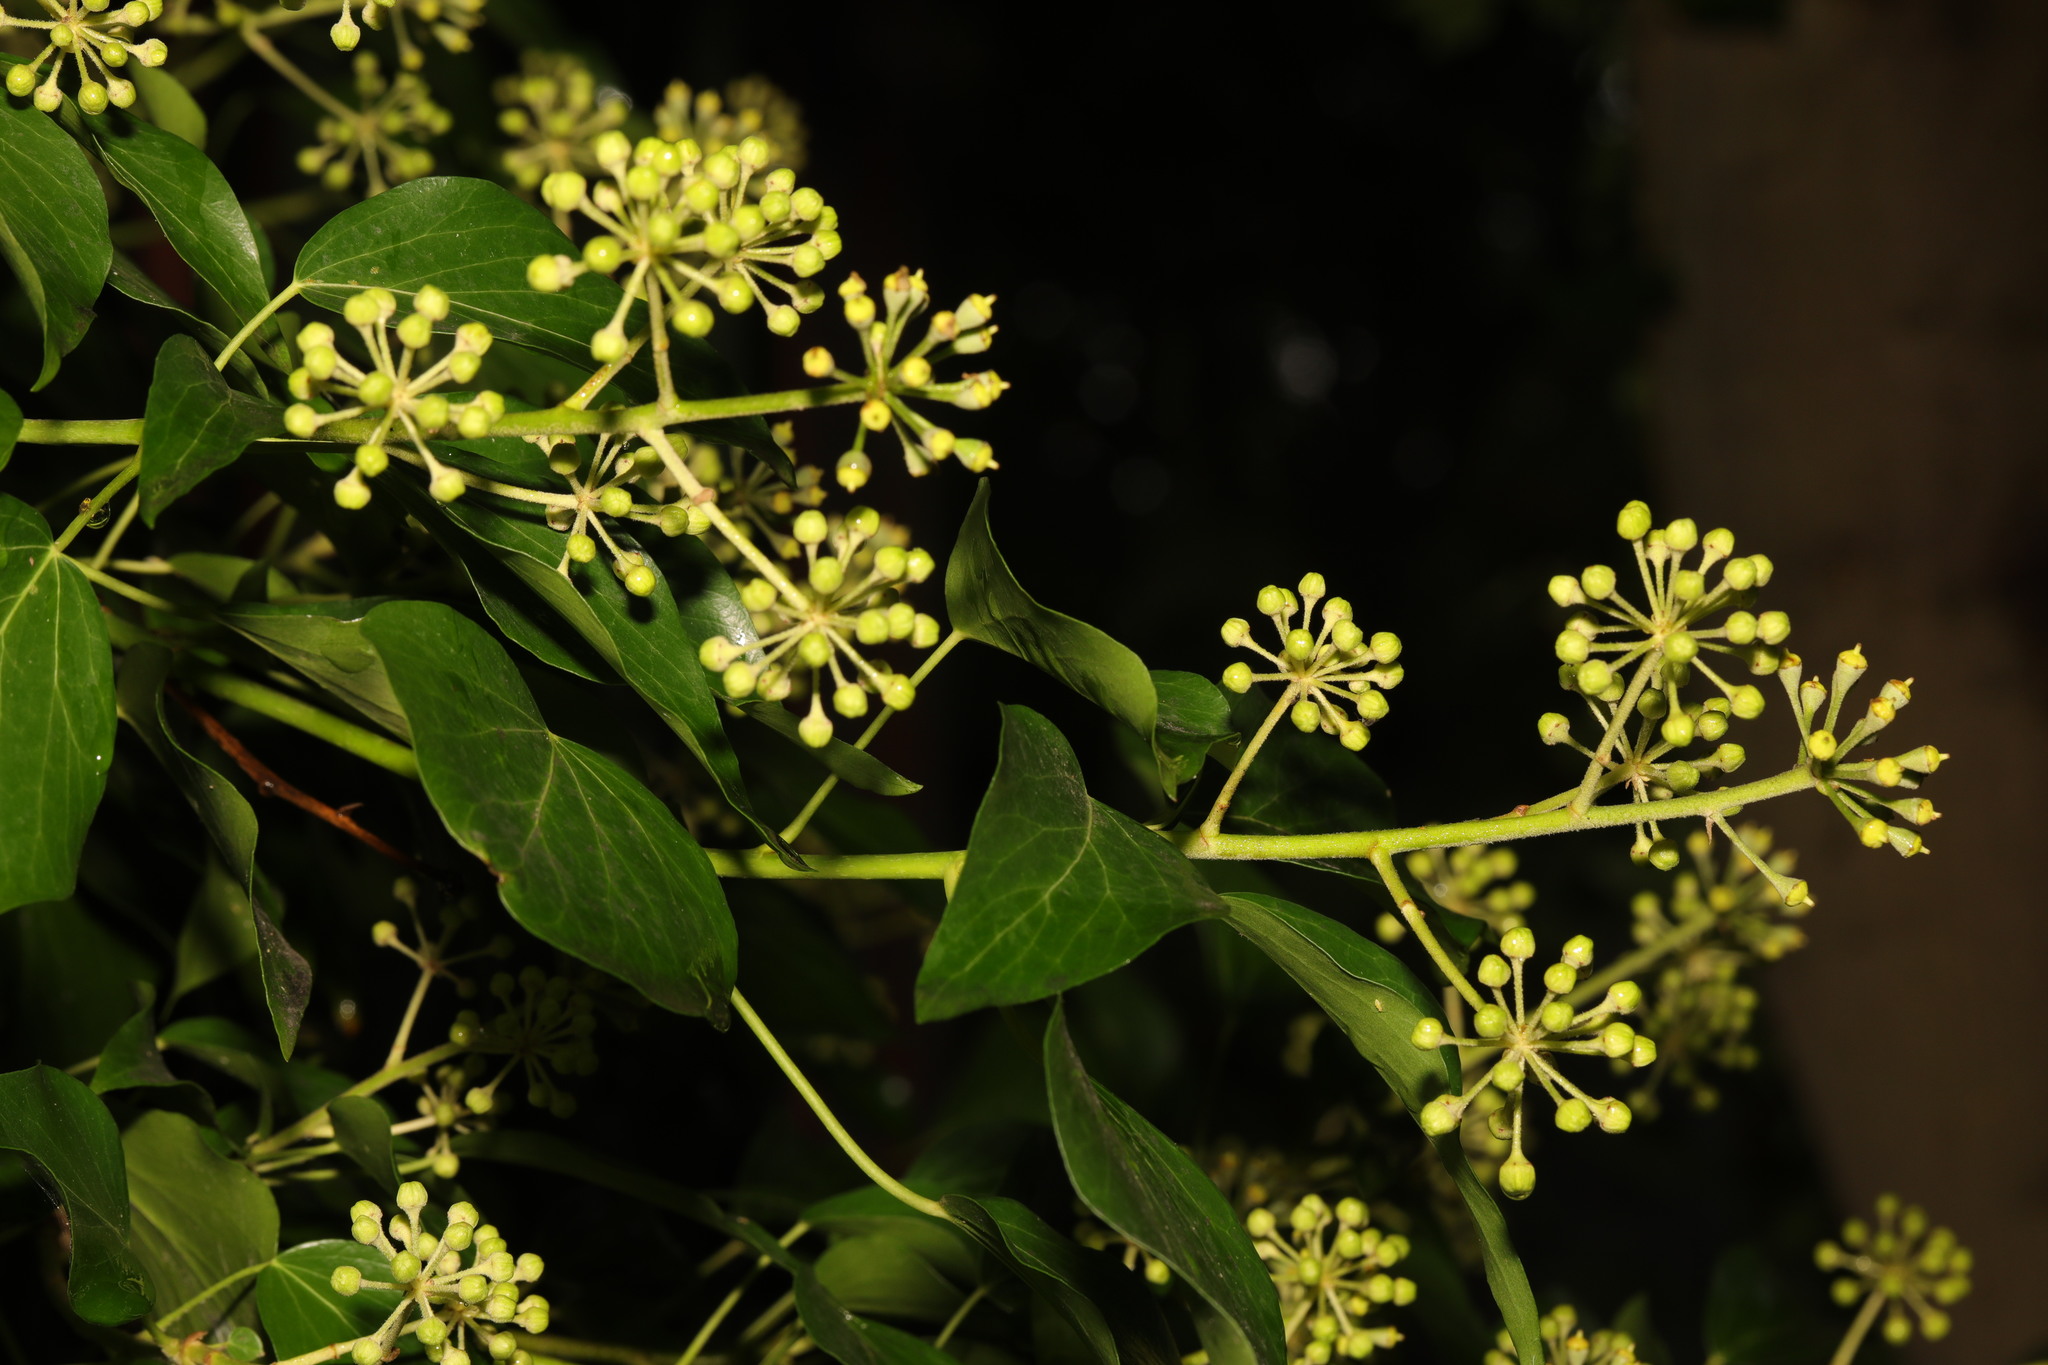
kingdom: Plantae
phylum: Tracheophyta
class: Magnoliopsida
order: Apiales
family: Araliaceae
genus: Hedera
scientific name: Hedera helix
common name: Ivy
